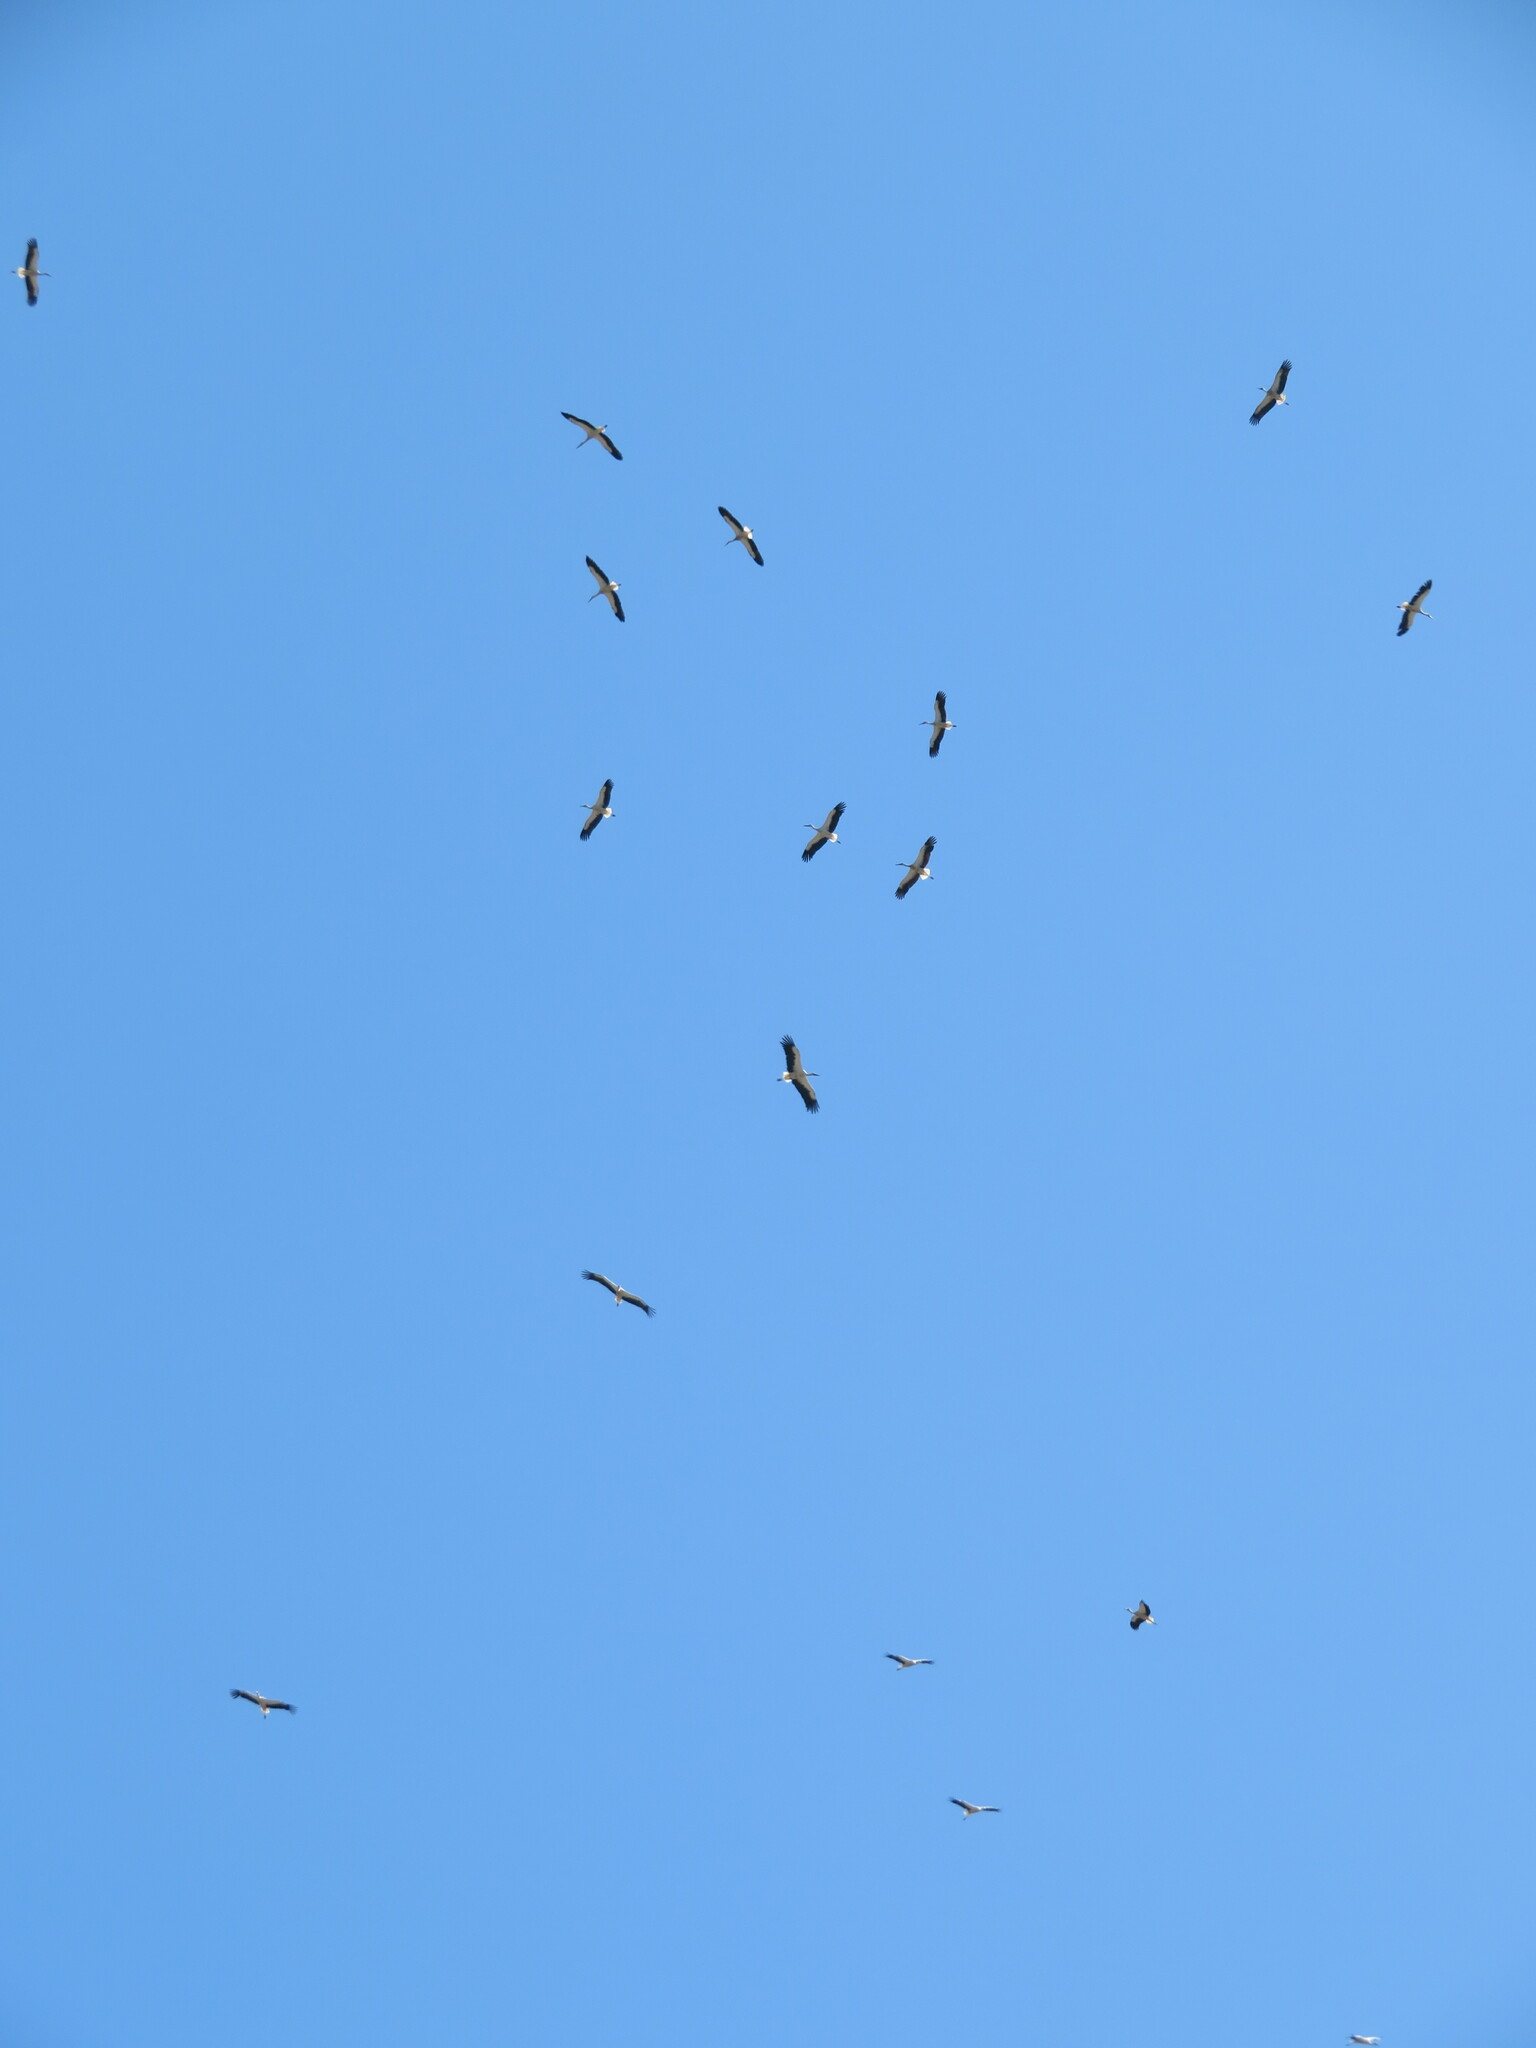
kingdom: Animalia
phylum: Chordata
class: Aves
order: Ciconiiformes
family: Ciconiidae
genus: Ciconia
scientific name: Ciconia ciconia
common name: White stork
